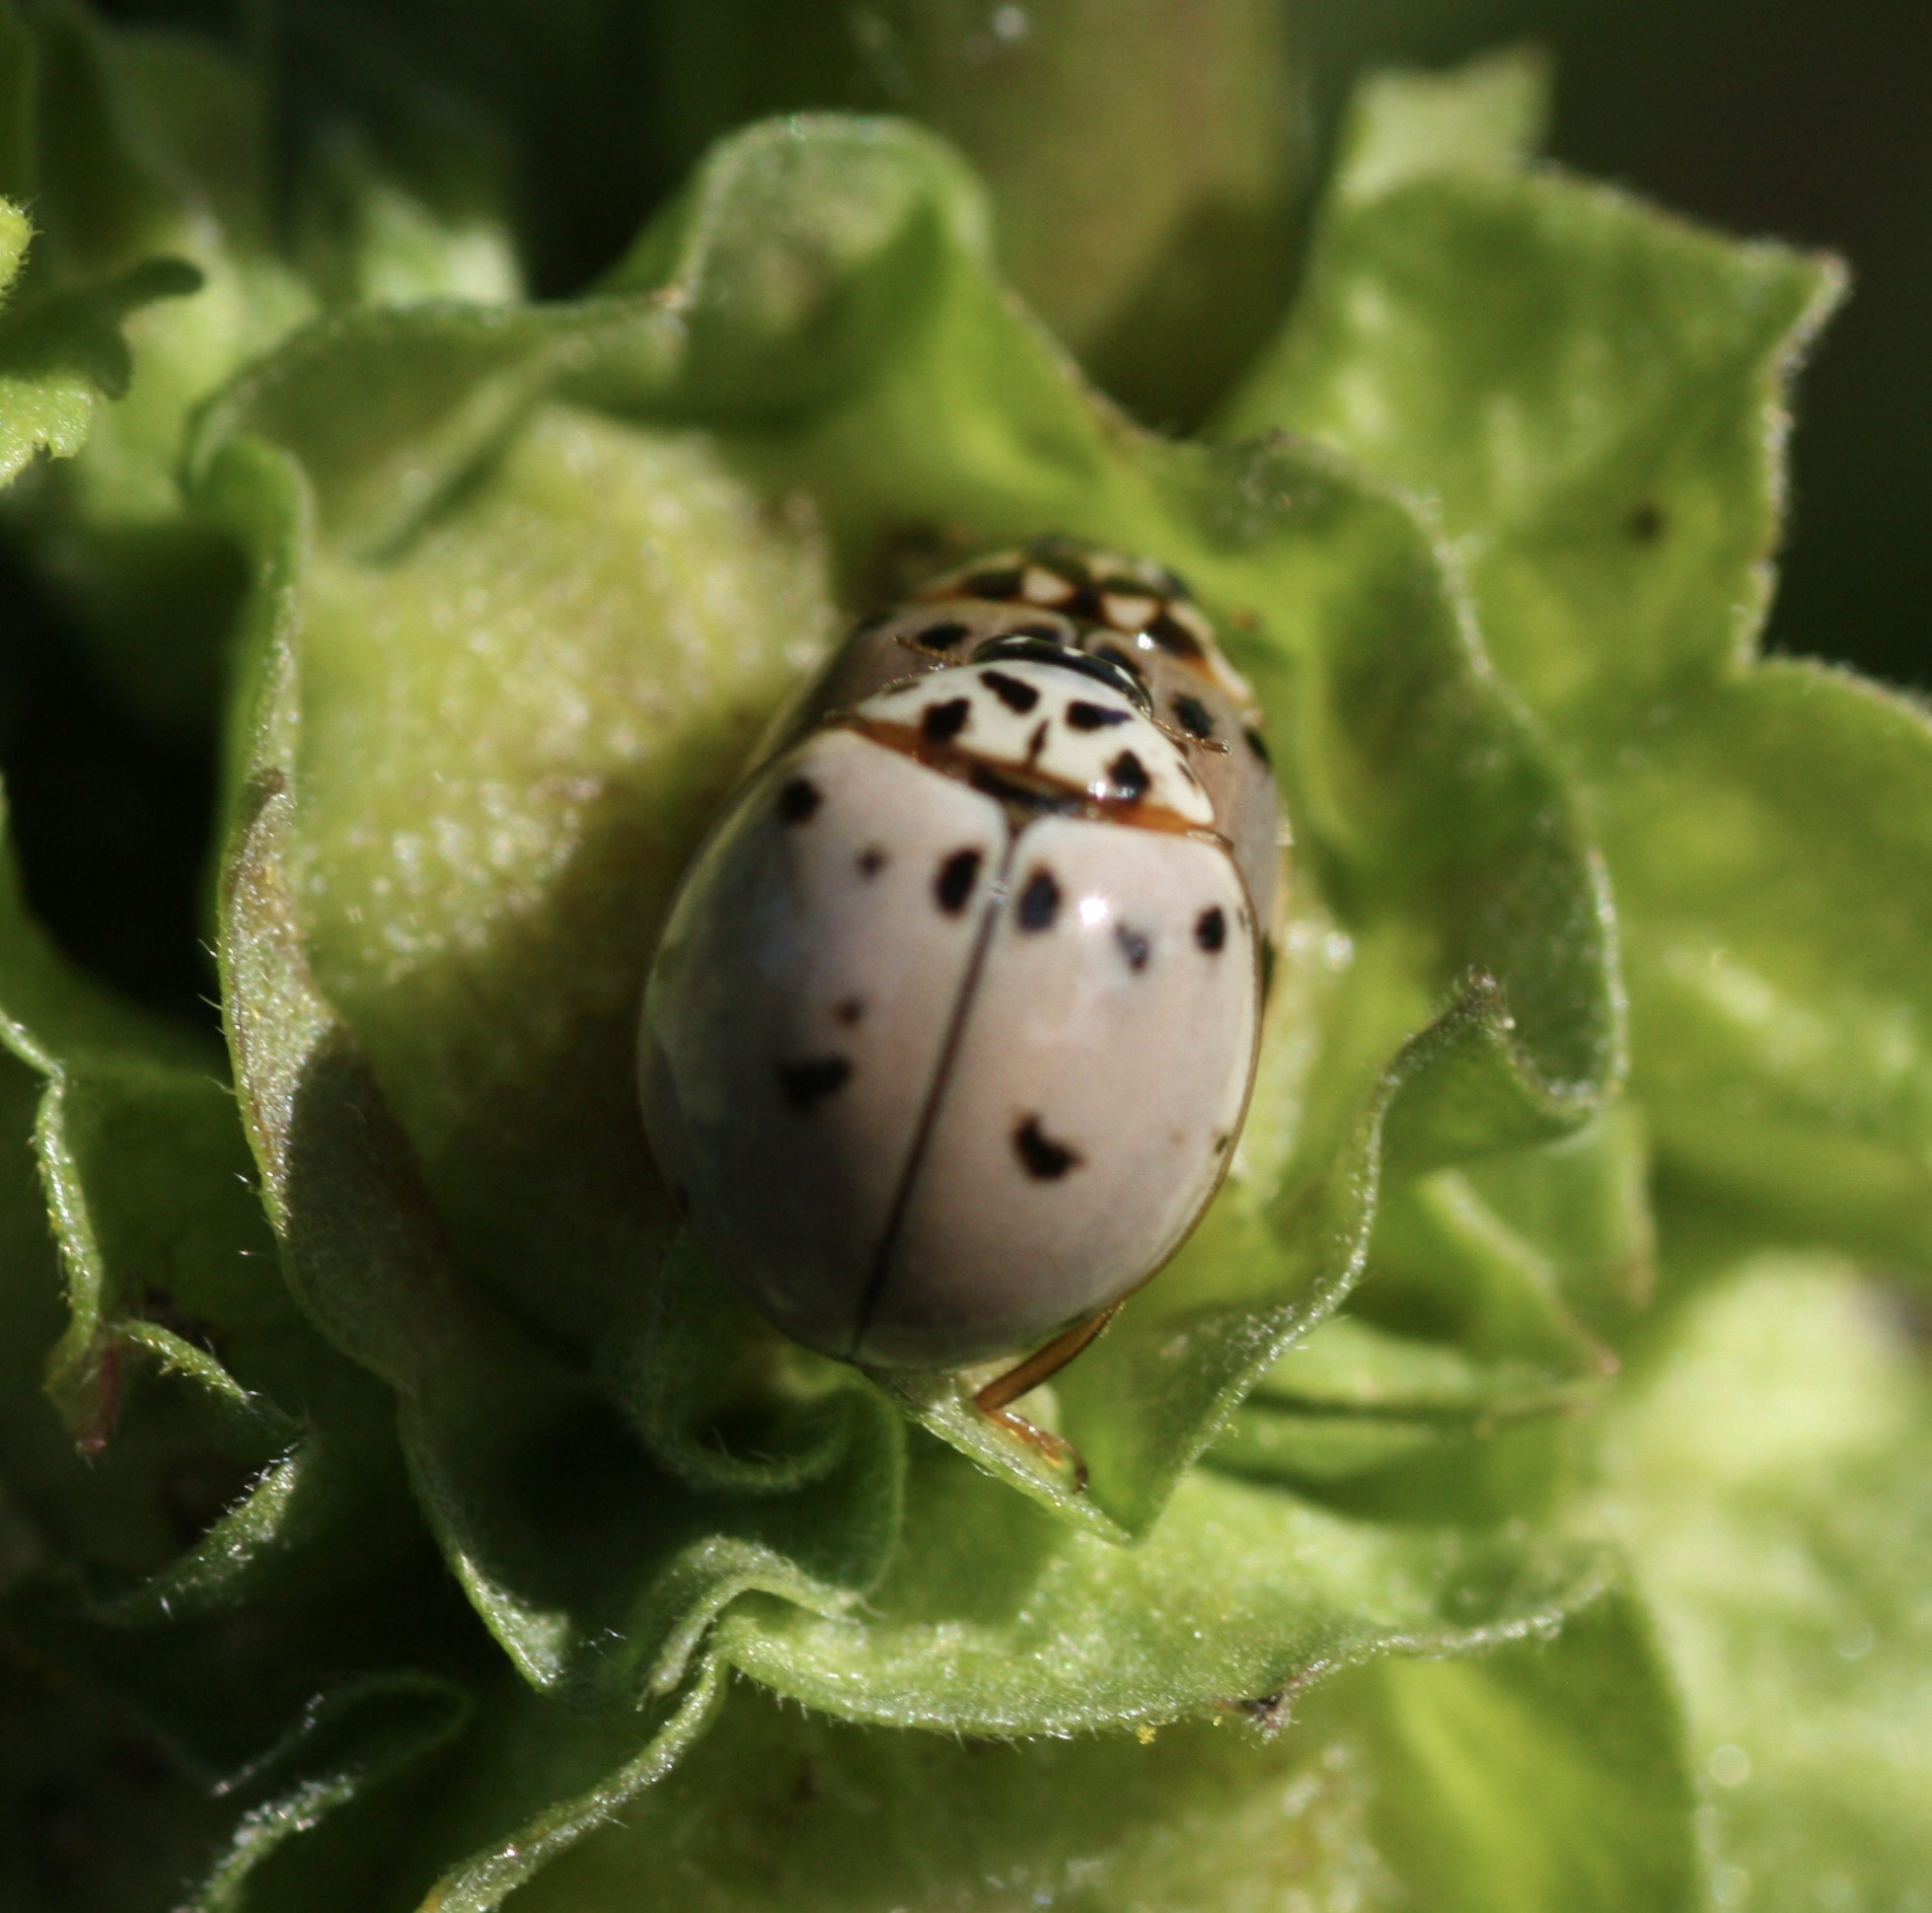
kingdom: Animalia
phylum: Arthropoda
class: Insecta
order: Coleoptera
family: Coccinellidae
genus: Olla
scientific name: Olla v-nigrum
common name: Ashy gray lady beetle
